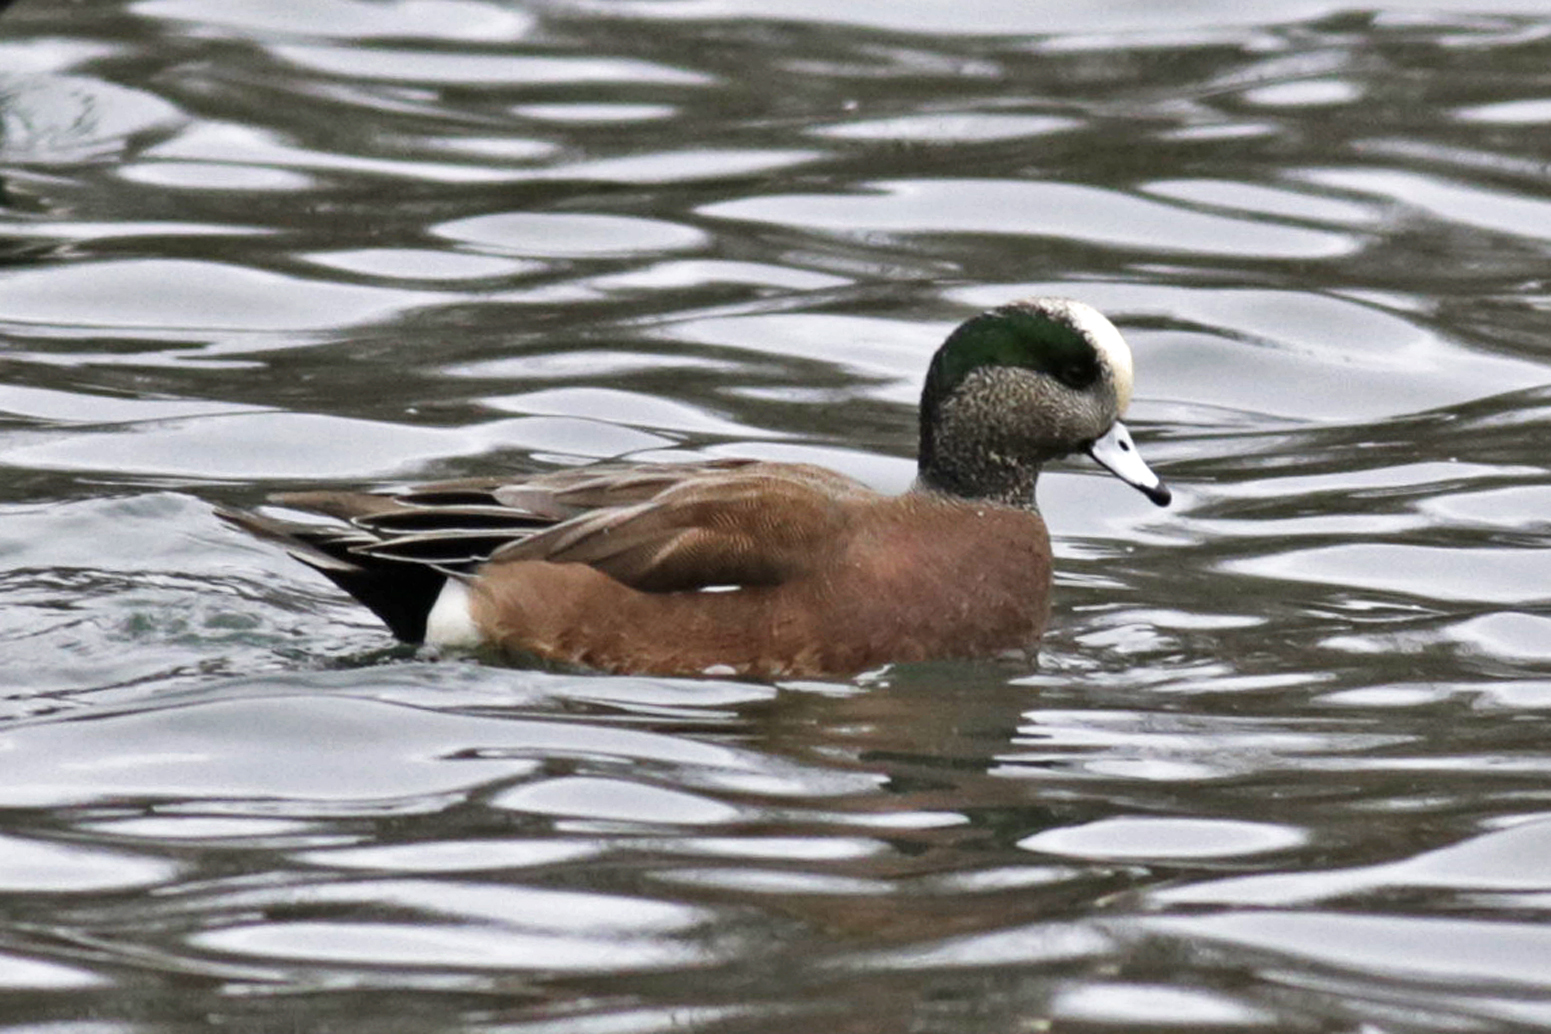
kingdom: Animalia
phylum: Chordata
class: Aves
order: Anseriformes
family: Anatidae
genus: Mareca
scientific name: Mareca americana
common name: American wigeon
